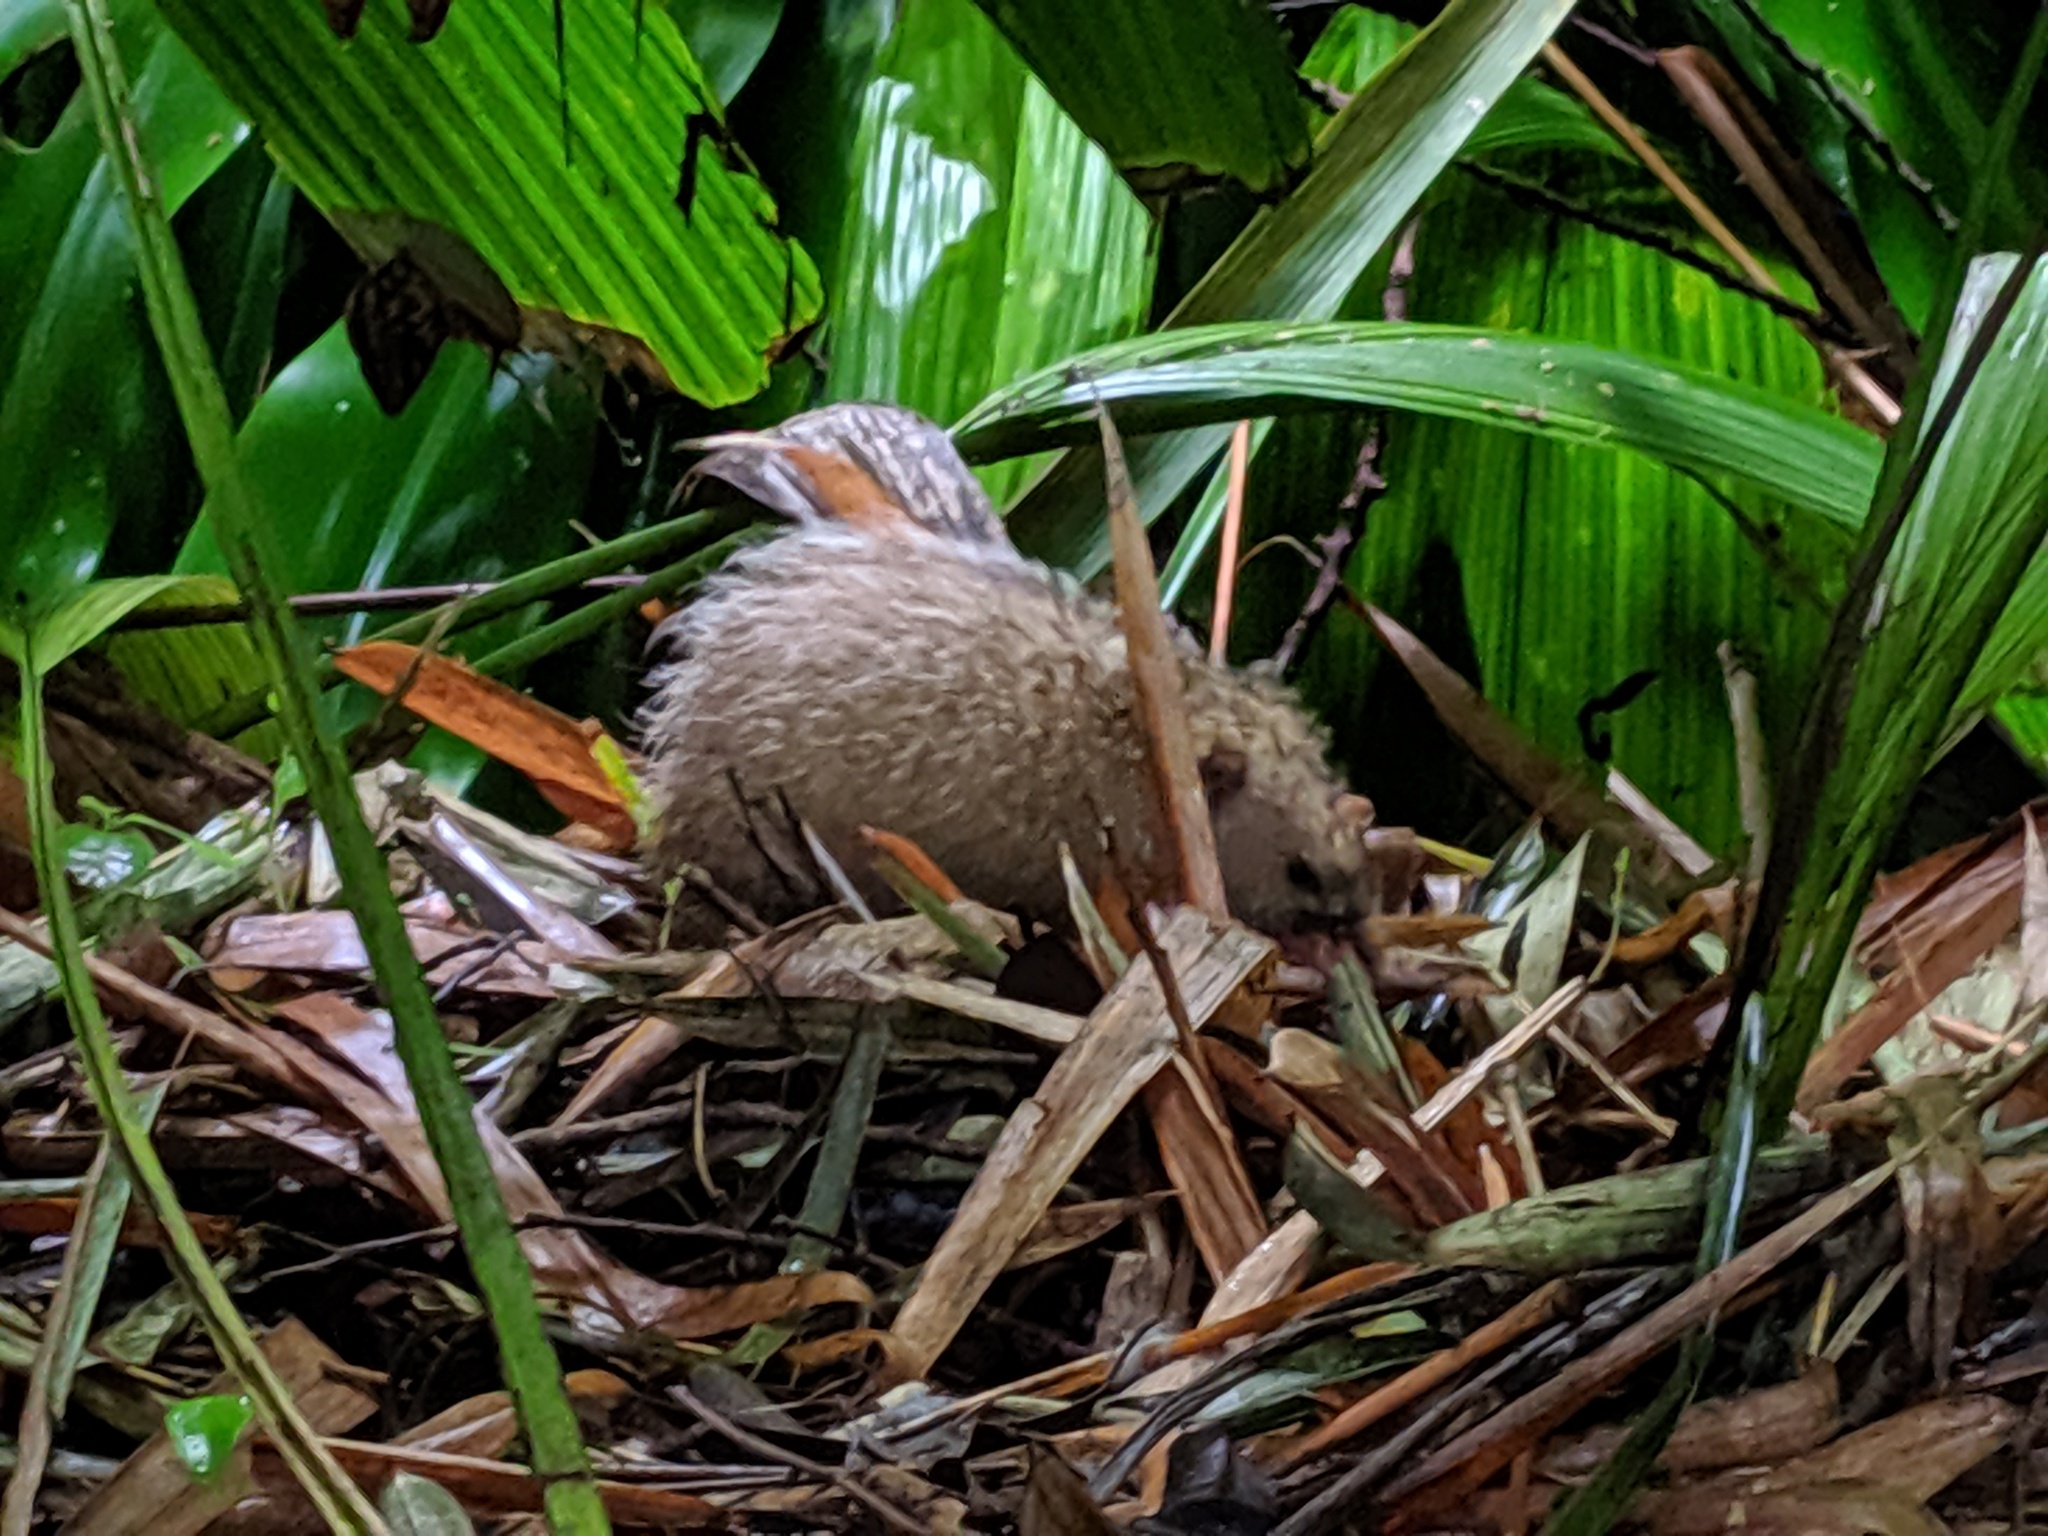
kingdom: Animalia
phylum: Chordata
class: Mammalia
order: Afrosoricida
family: Tenrecidae
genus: Tenrec
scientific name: Tenrec ecaudatus
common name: Common tenrec
